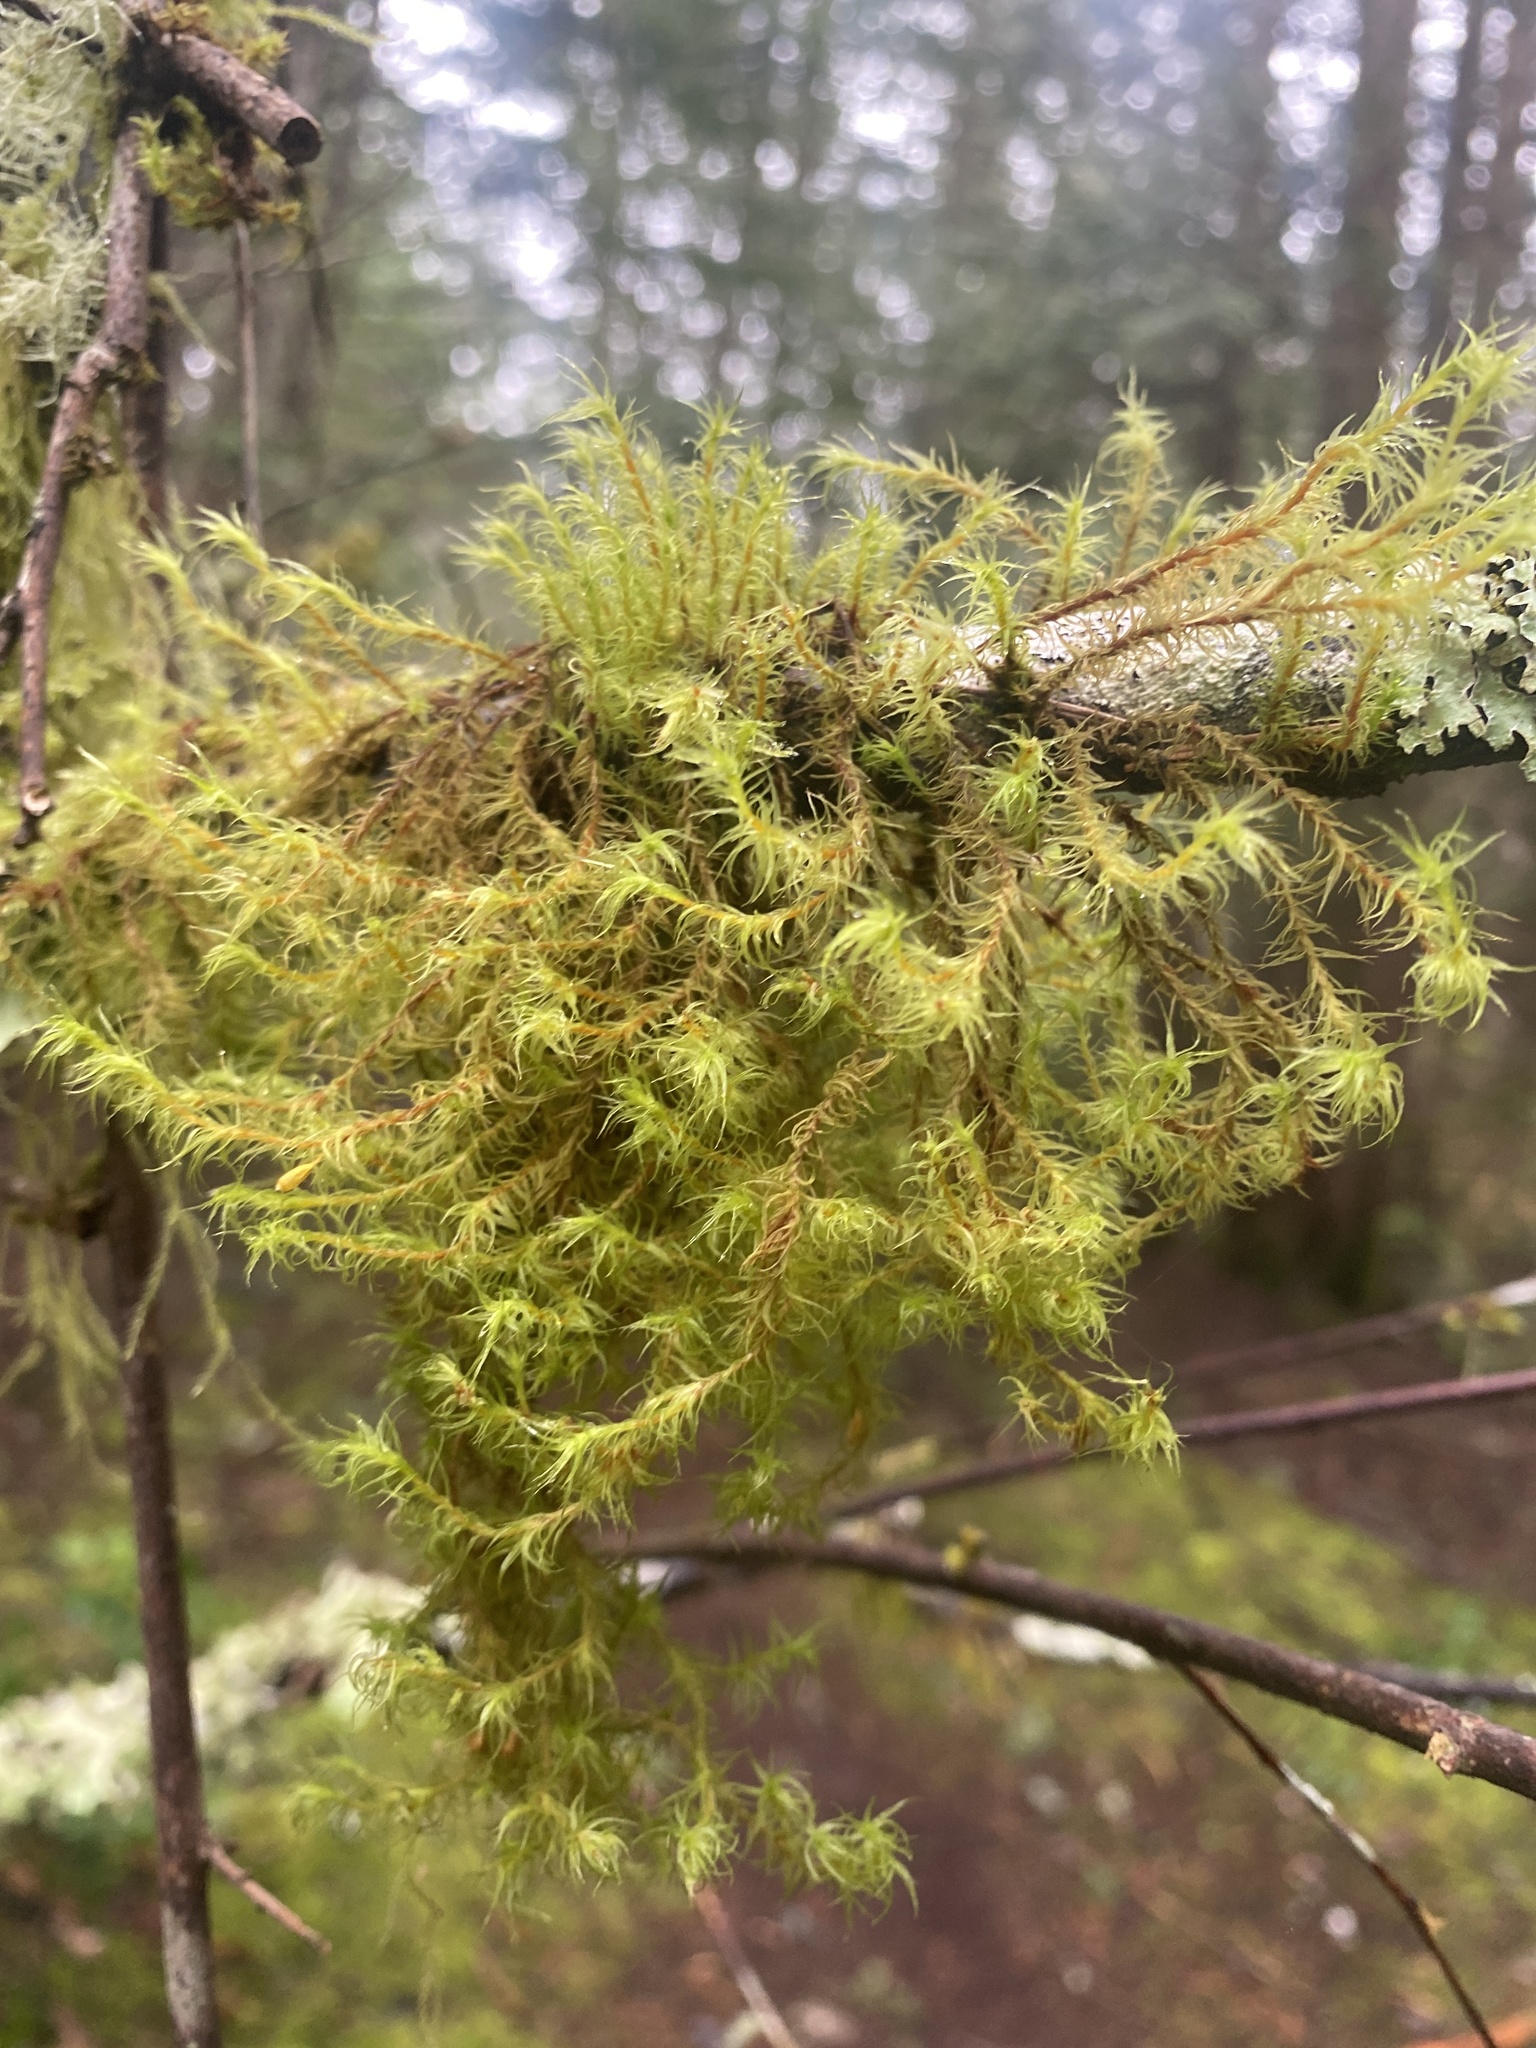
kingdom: Plantae
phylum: Bryophyta
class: Bryopsida
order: Orthotrichales
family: Orthotrichaceae
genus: Pulvigera
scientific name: Pulvigera lyellii
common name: Lyell's bristle-moss
